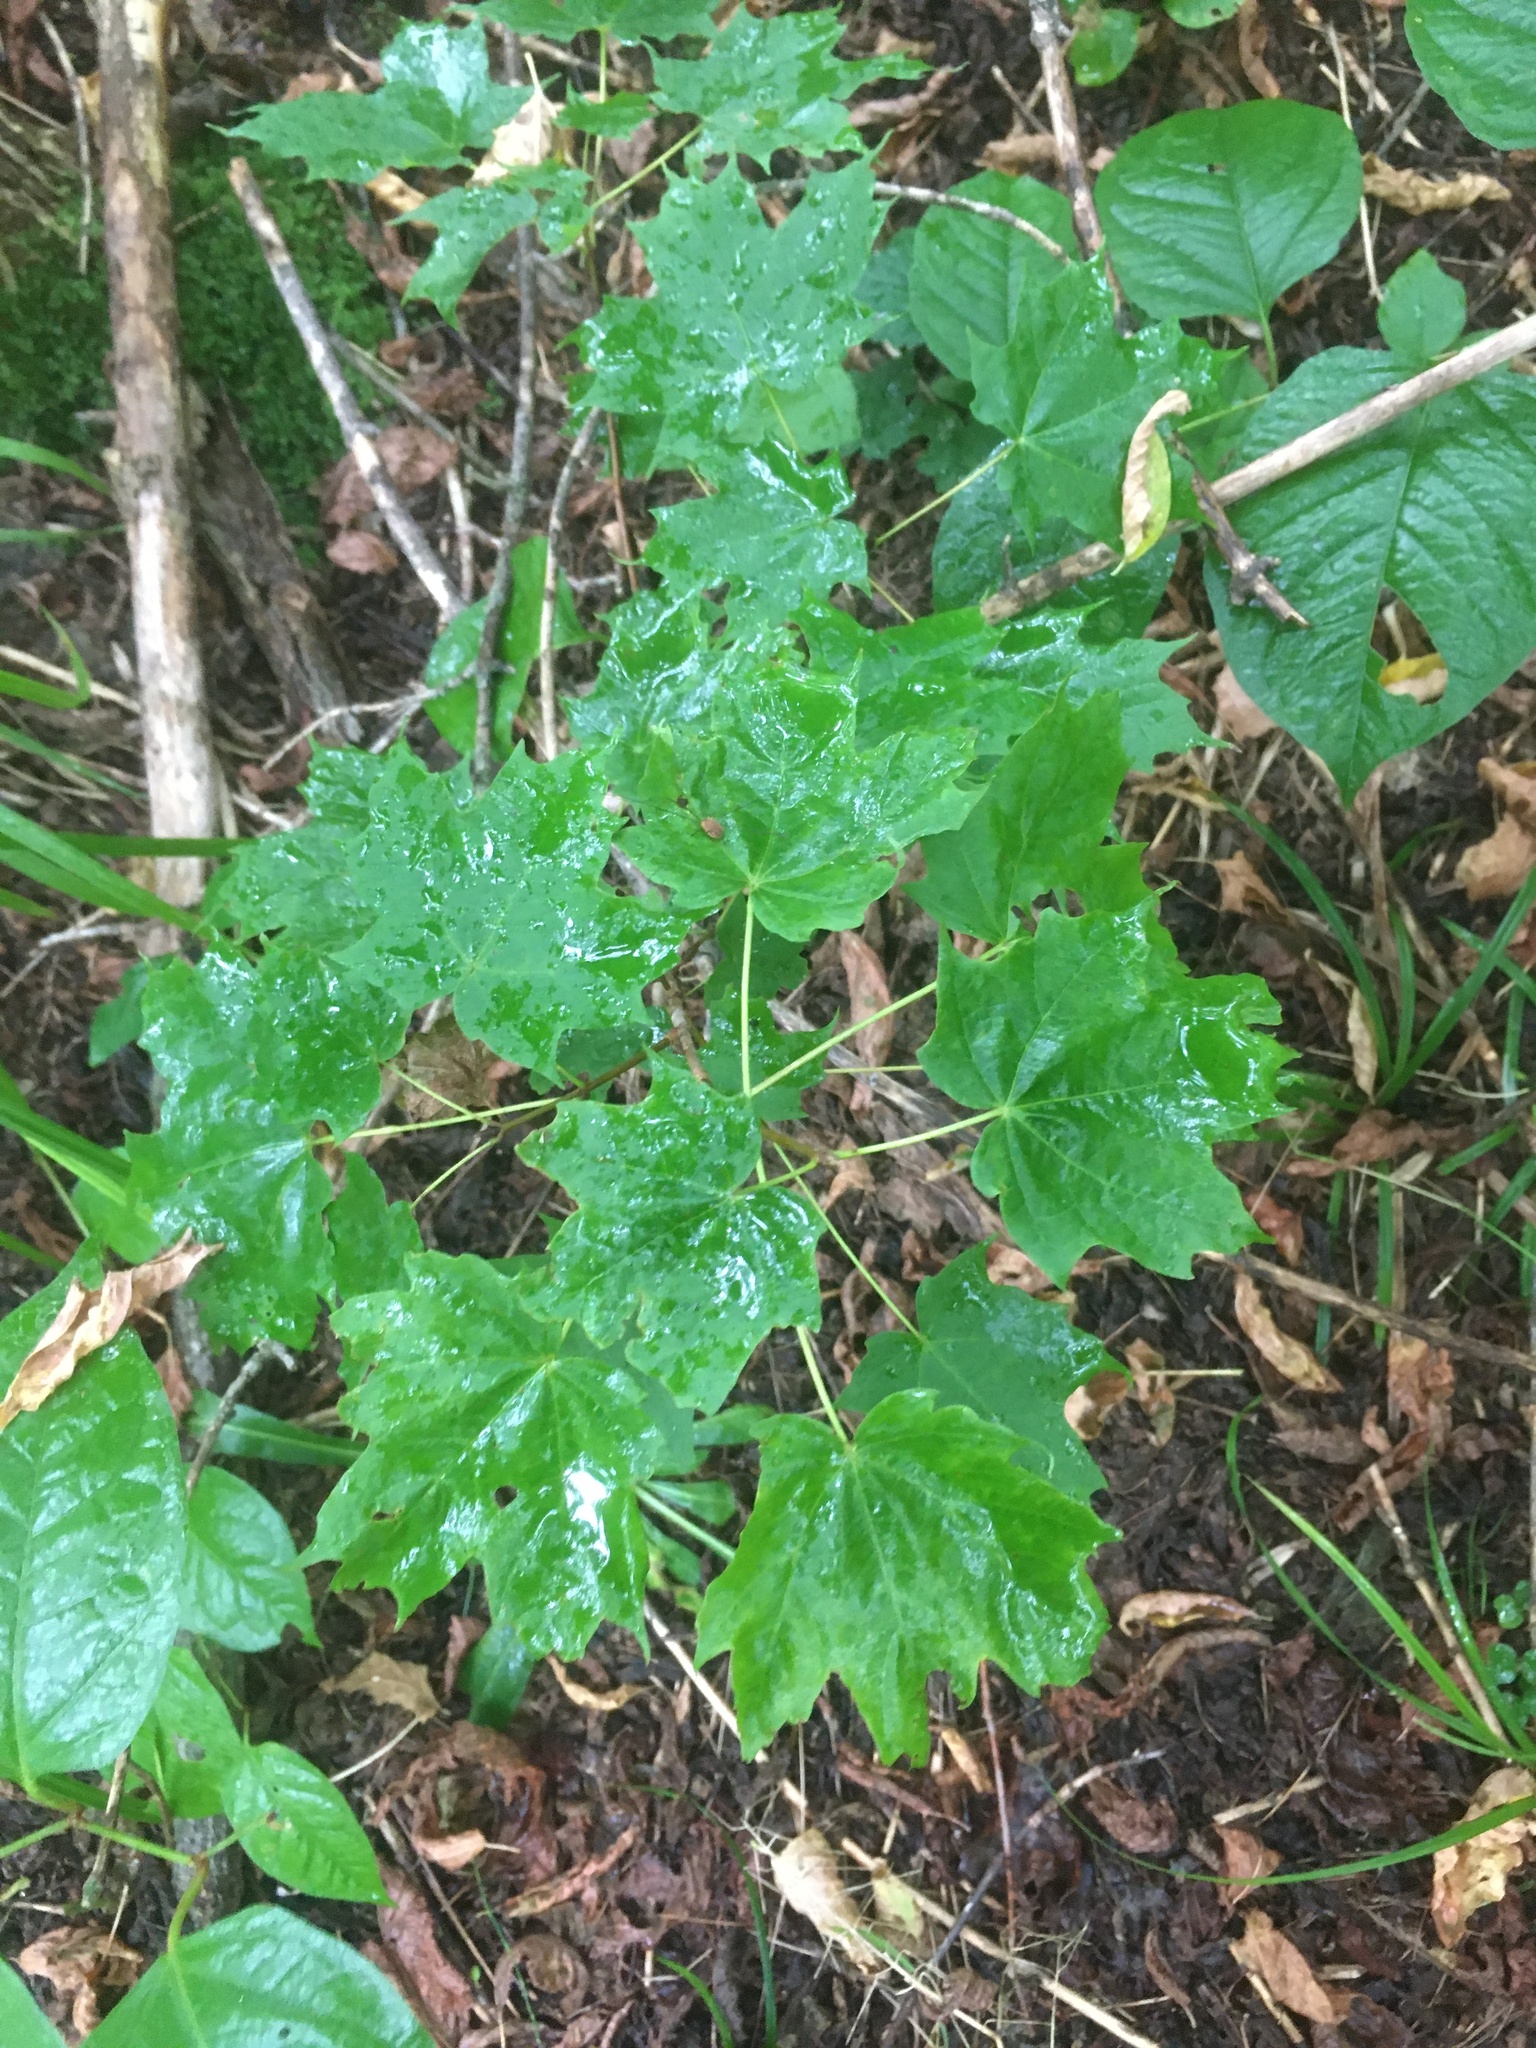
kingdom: Plantae
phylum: Tracheophyta
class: Magnoliopsida
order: Sapindales
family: Sapindaceae
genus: Acer
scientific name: Acer saccharum
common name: Sugar maple
